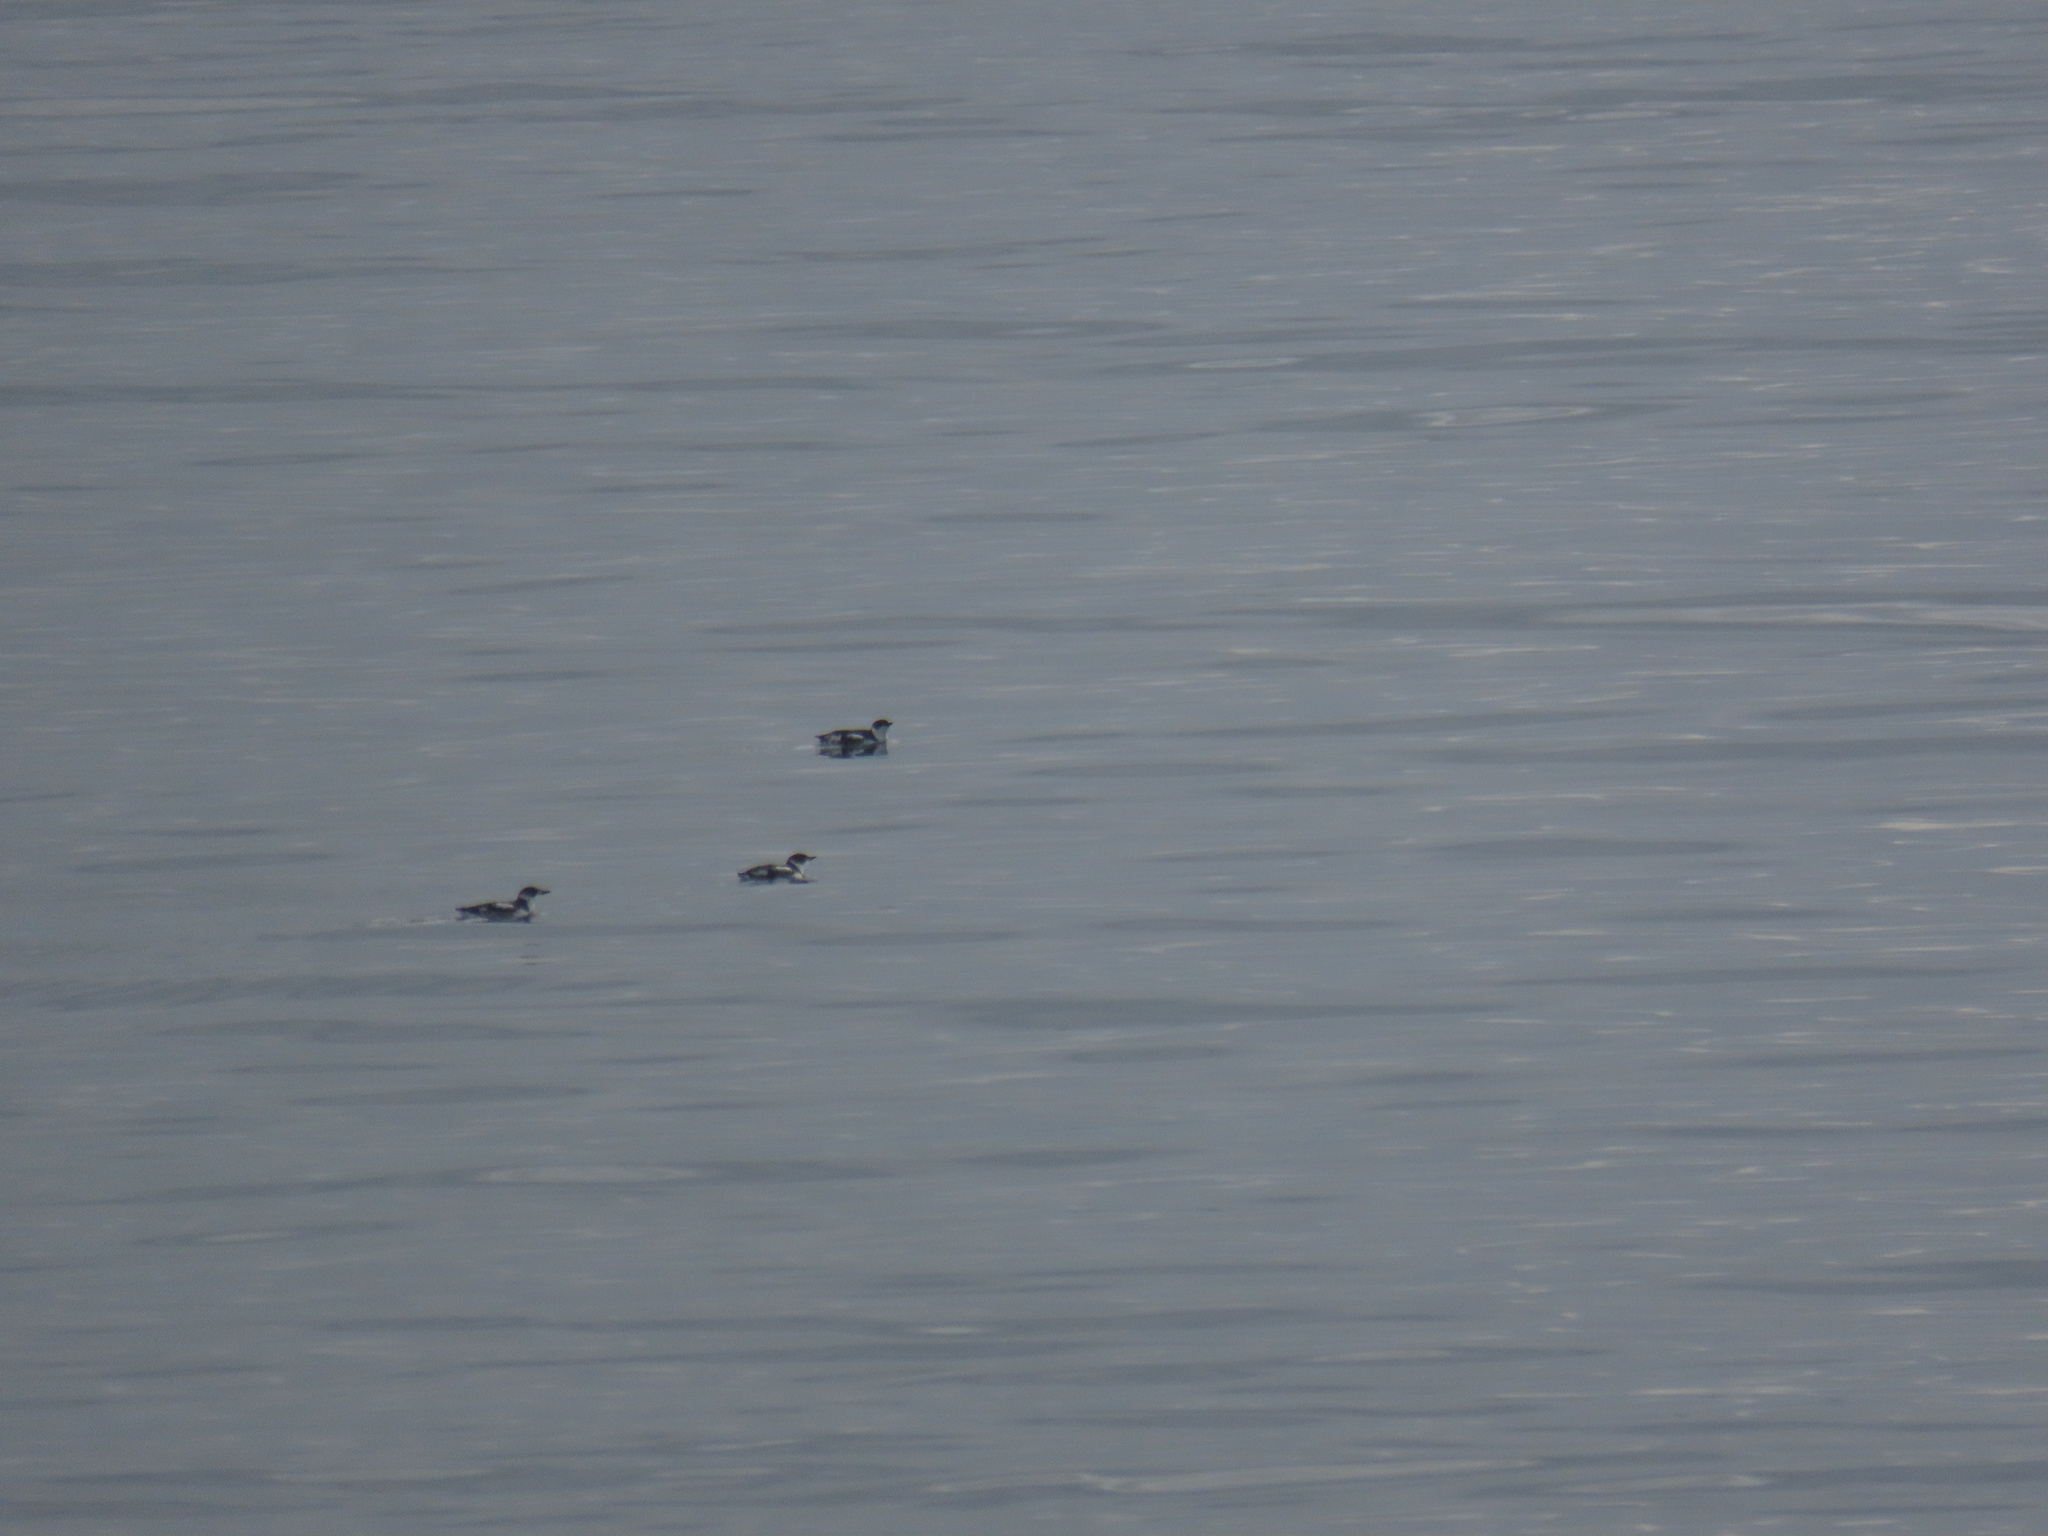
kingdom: Animalia
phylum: Chordata
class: Aves
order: Charadriiformes
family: Alcidae
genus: Brachyramphus
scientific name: Brachyramphus marmoratus
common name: Marbled murrelet
